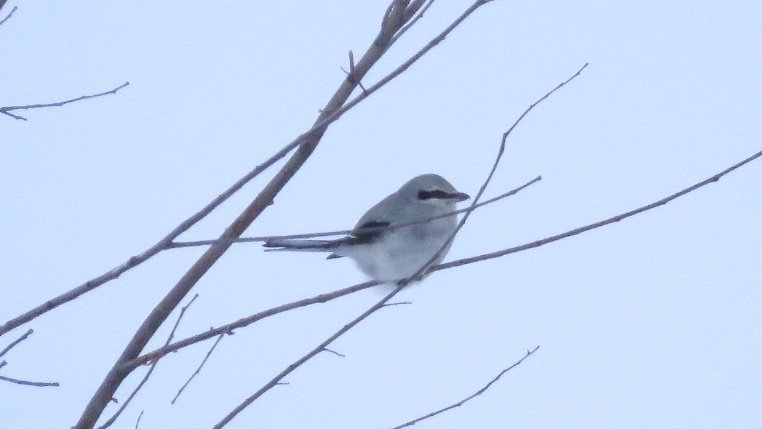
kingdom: Animalia
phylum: Chordata
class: Aves
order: Passeriformes
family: Laniidae
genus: Lanius
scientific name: Lanius borealis
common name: Northern shrike
